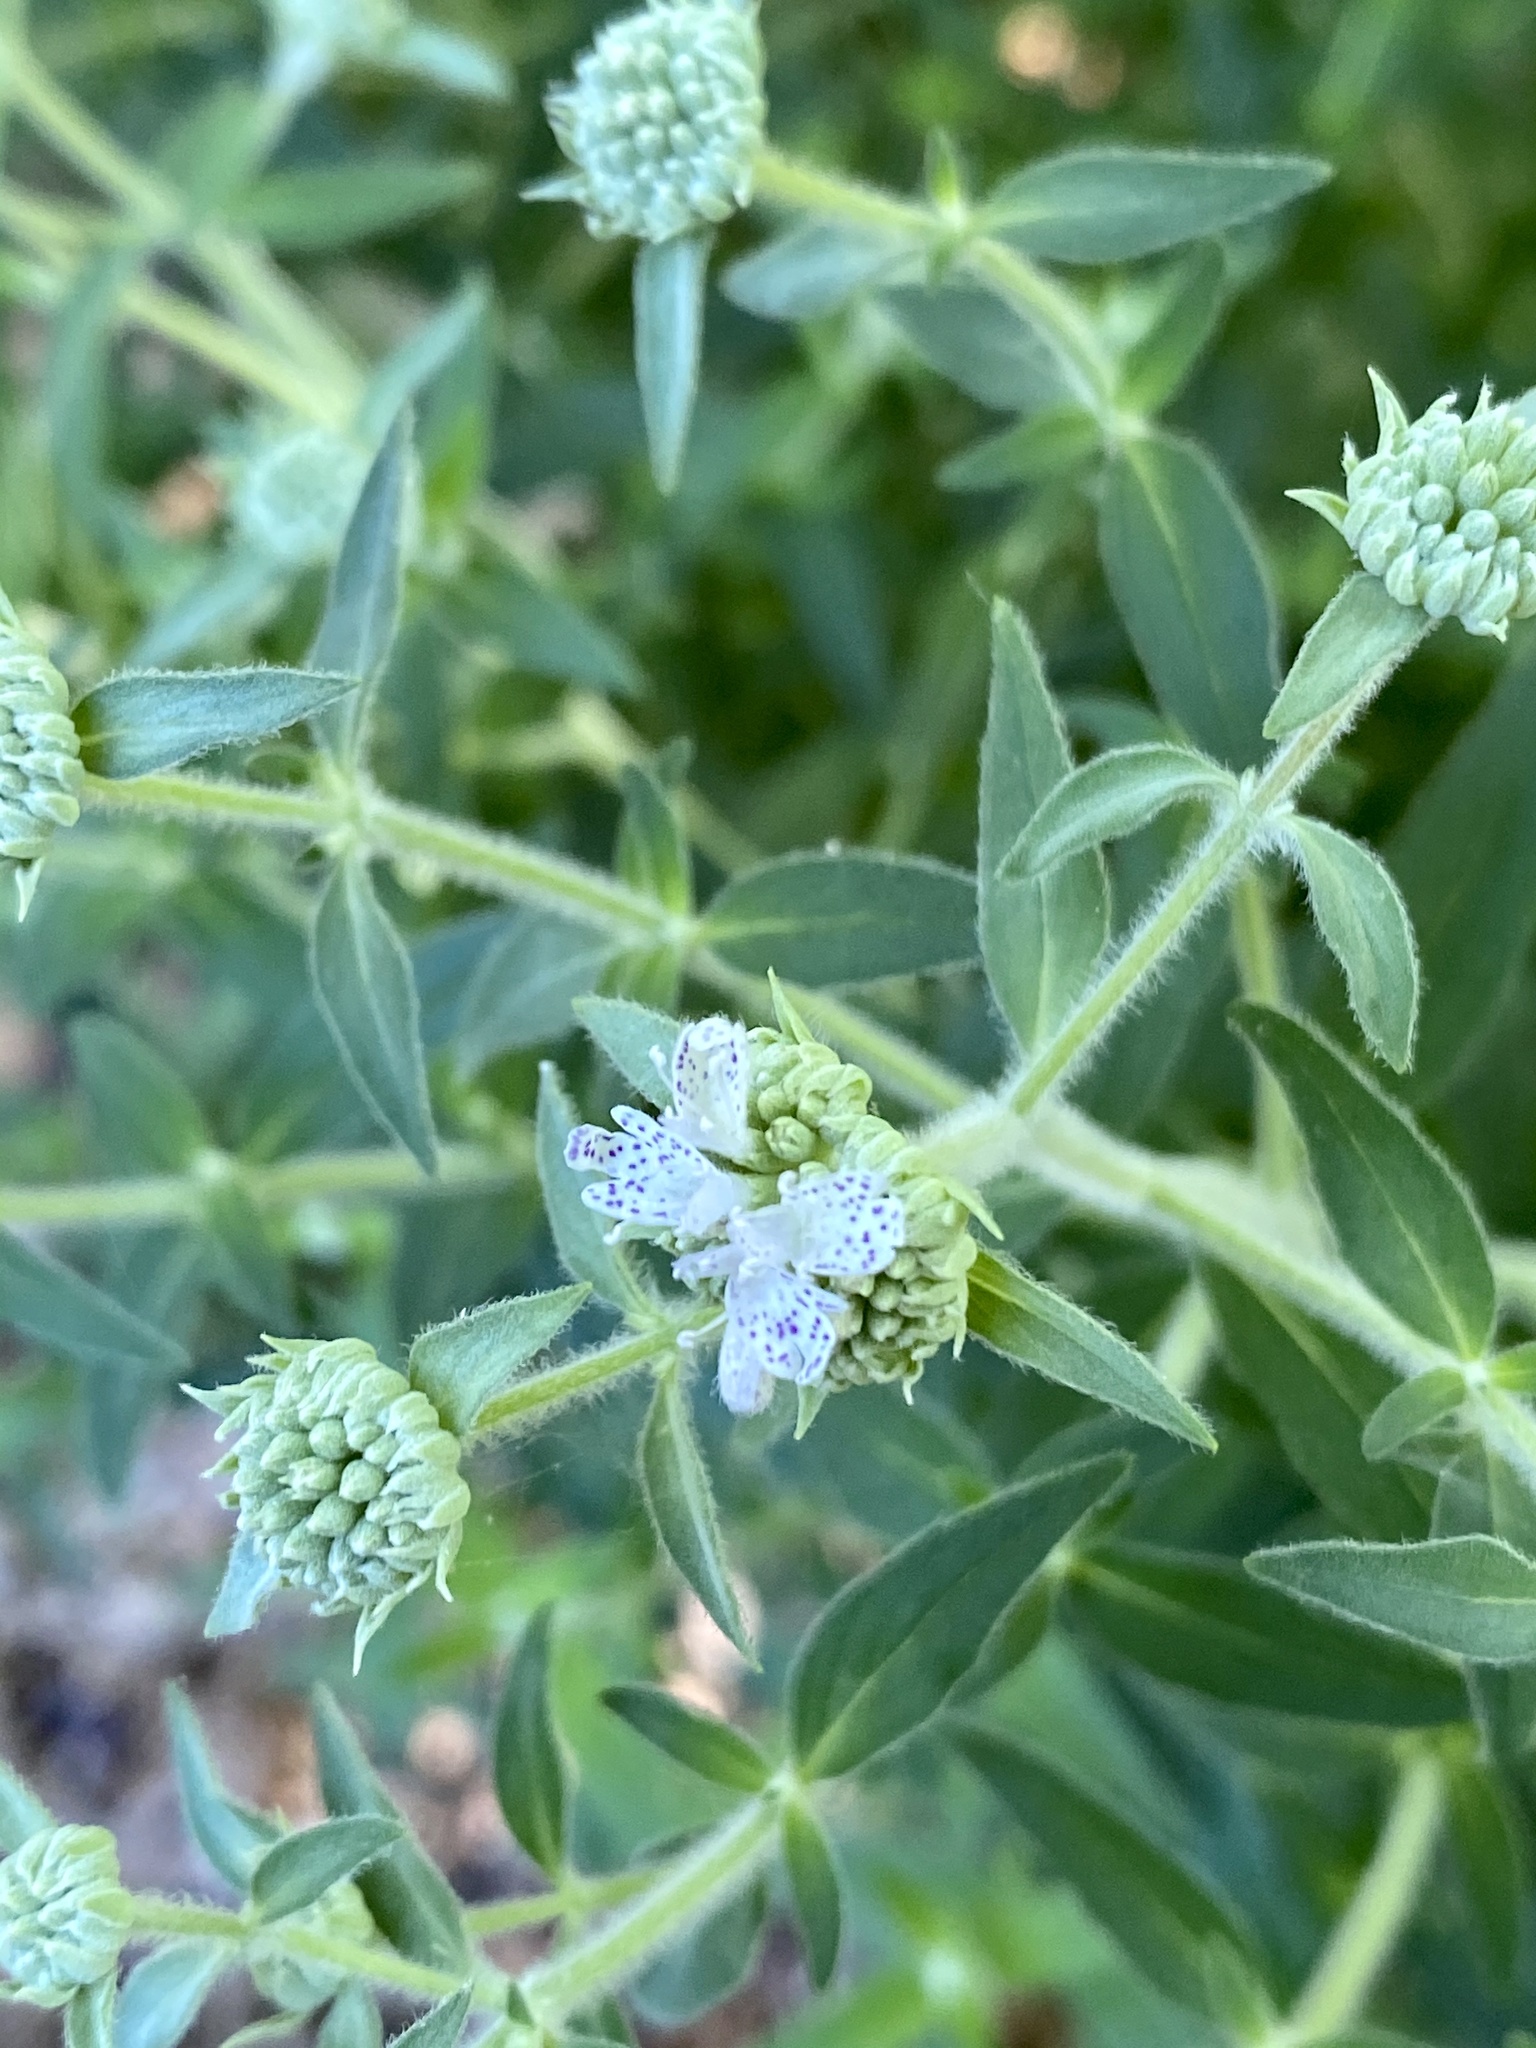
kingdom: Plantae
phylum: Tracheophyta
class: Magnoliopsida
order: Lamiales
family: Lamiaceae
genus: Pycnanthemum
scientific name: Pycnanthemum virginianum
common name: Virginia mountain-mint
